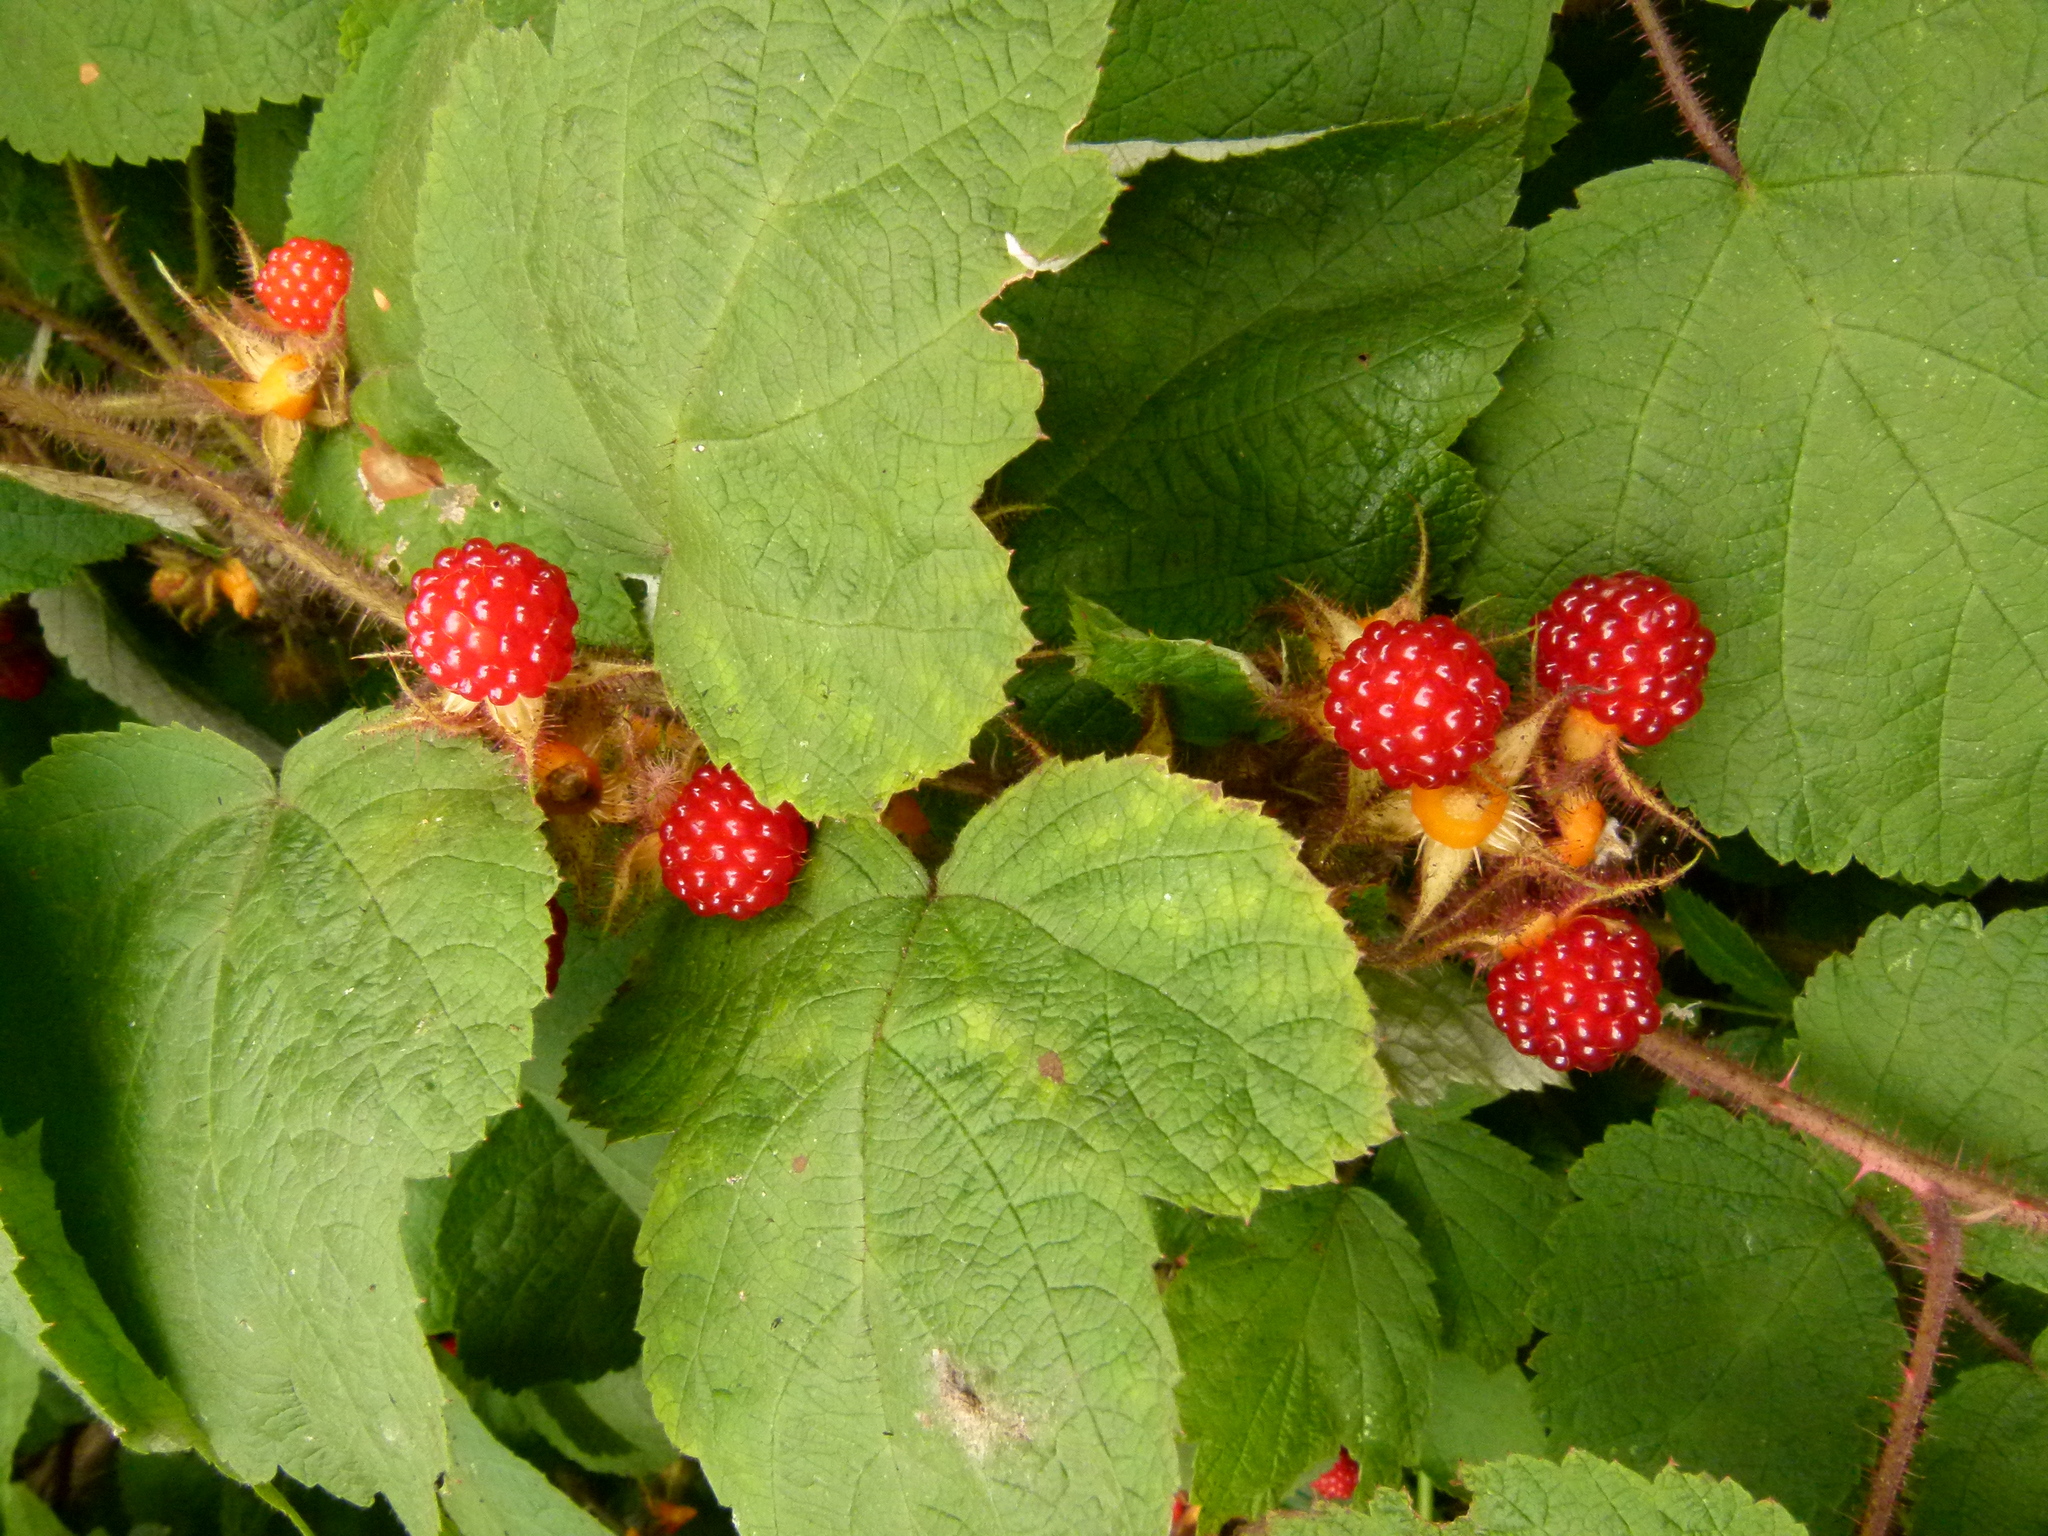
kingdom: Plantae
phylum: Tracheophyta
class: Magnoliopsida
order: Rosales
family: Rosaceae
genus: Rubus
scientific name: Rubus phoenicolasius
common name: Japanese wineberry
